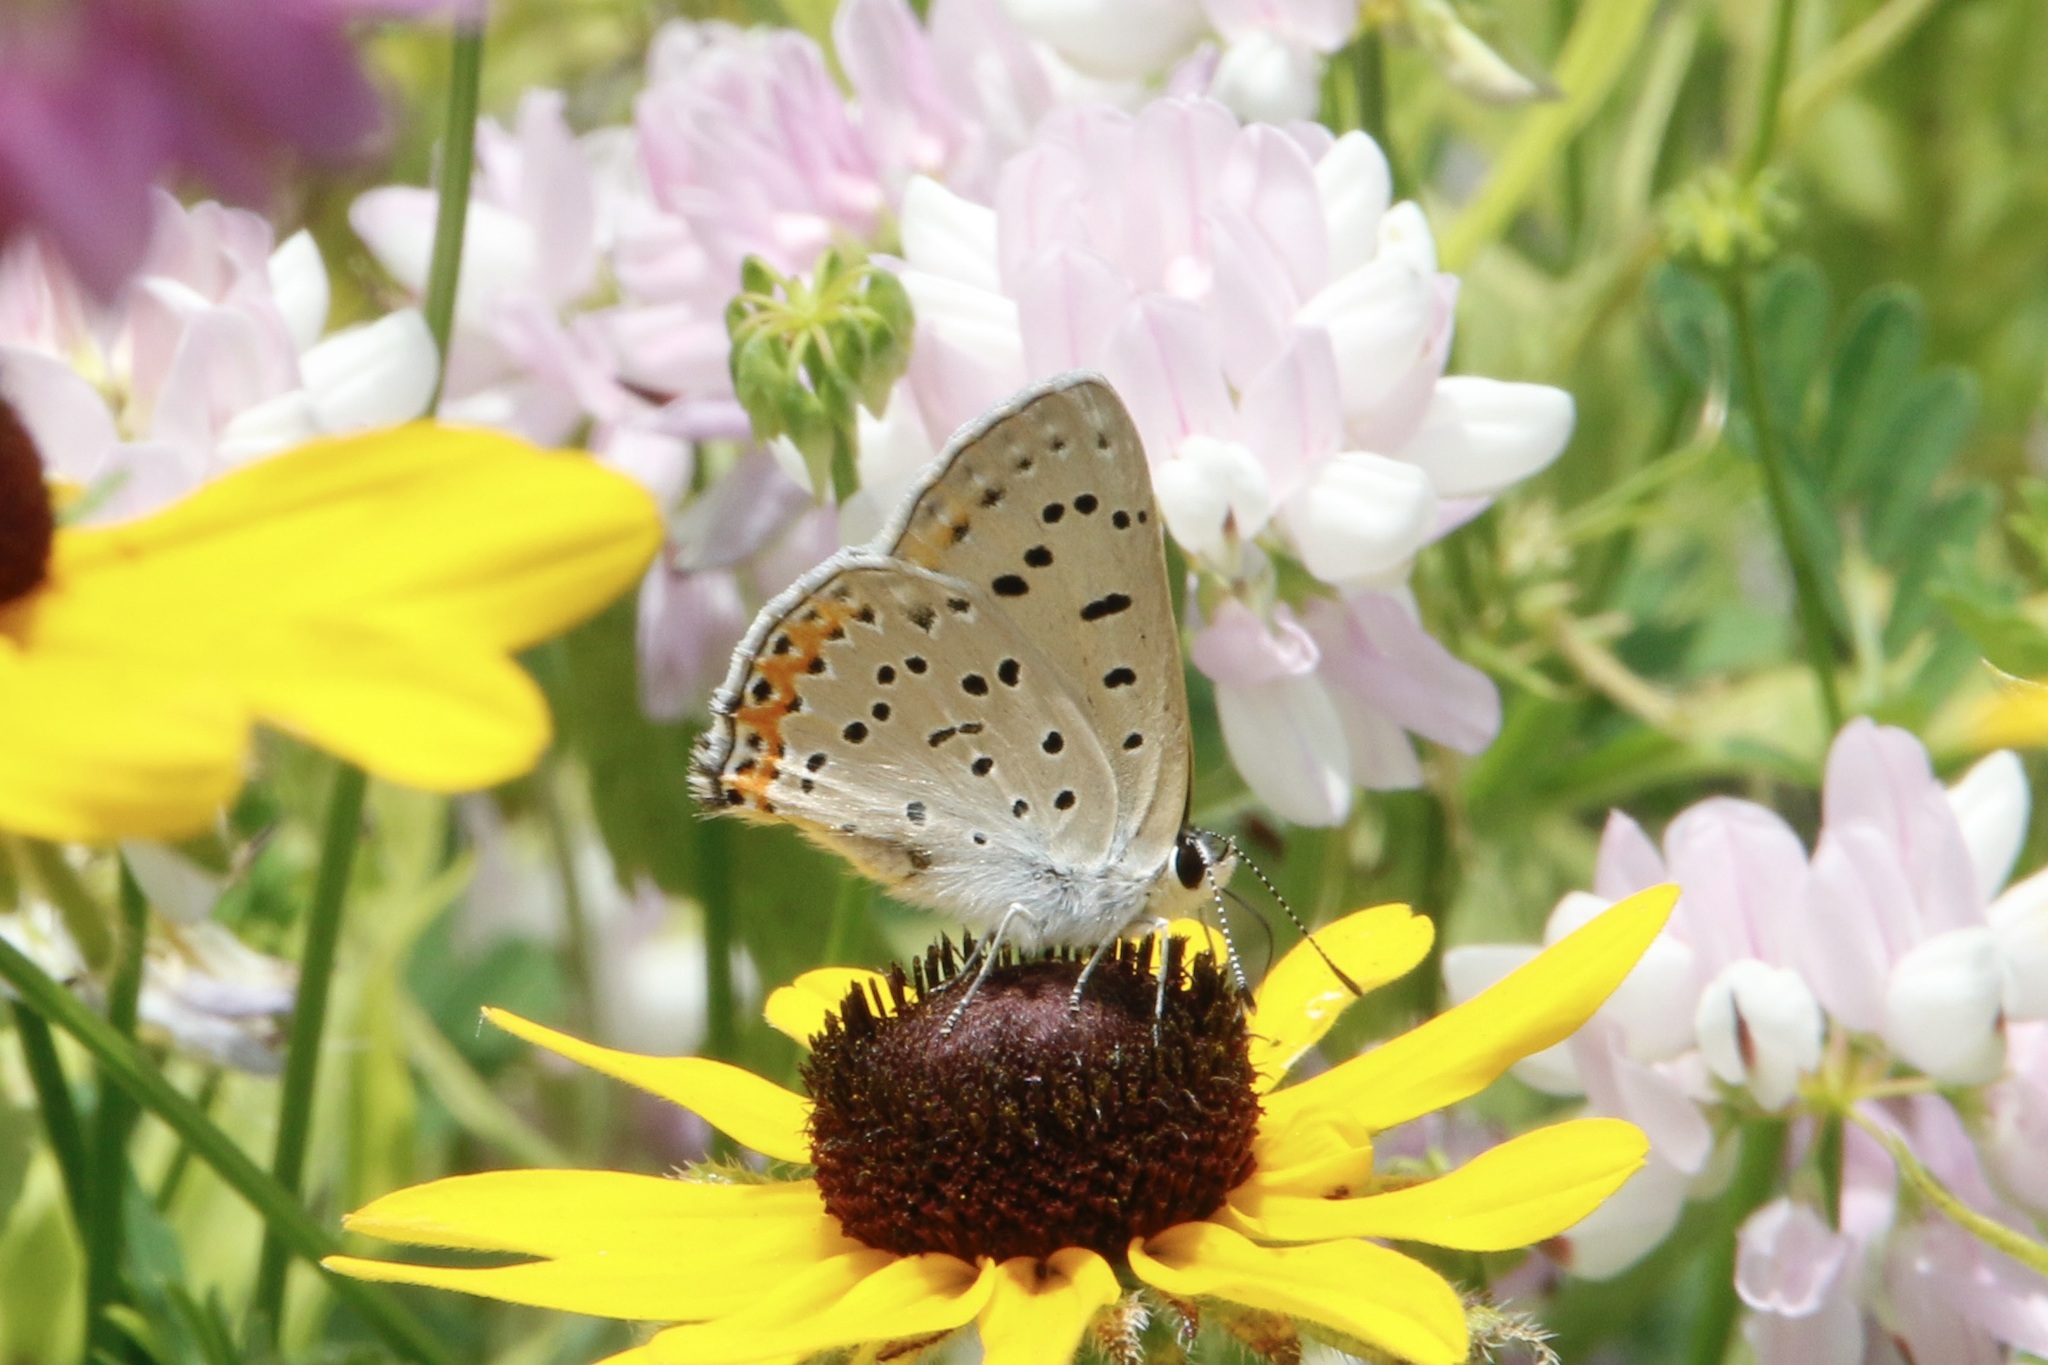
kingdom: Animalia
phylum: Arthropoda
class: Insecta
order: Lepidoptera
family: Lycaenidae
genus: Tharsalea
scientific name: Tharsalea dione
